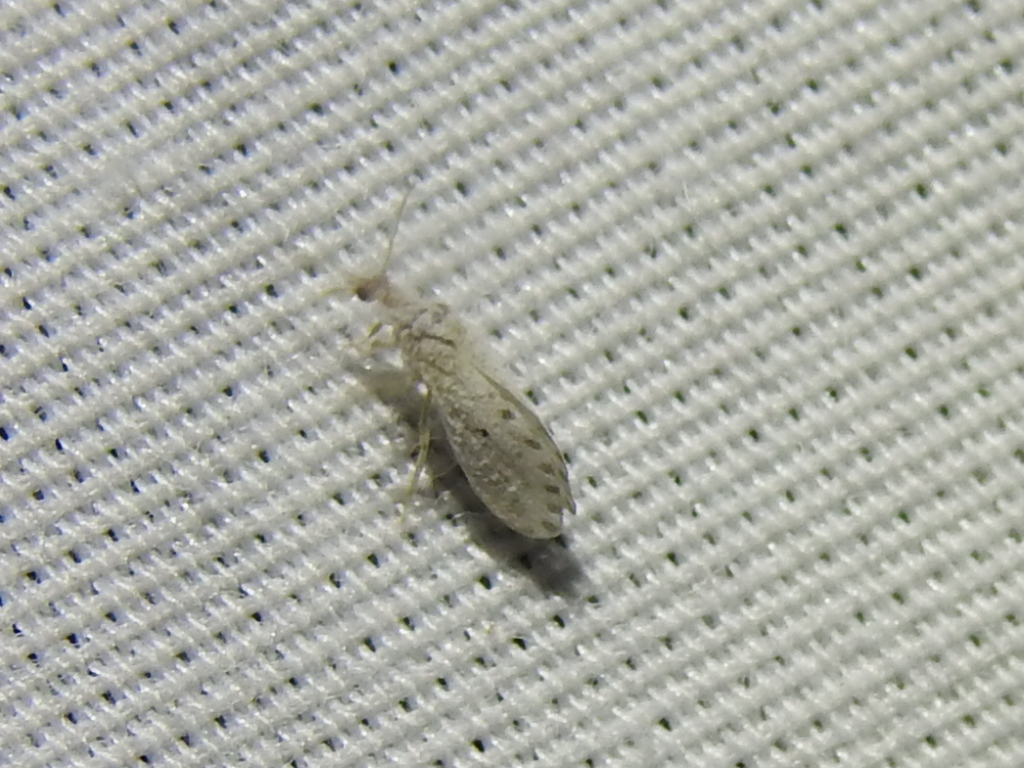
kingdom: Animalia
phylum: Arthropoda
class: Insecta
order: Neuroptera
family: Coniopterygidae
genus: Neoconis
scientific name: Neoconis marginata
